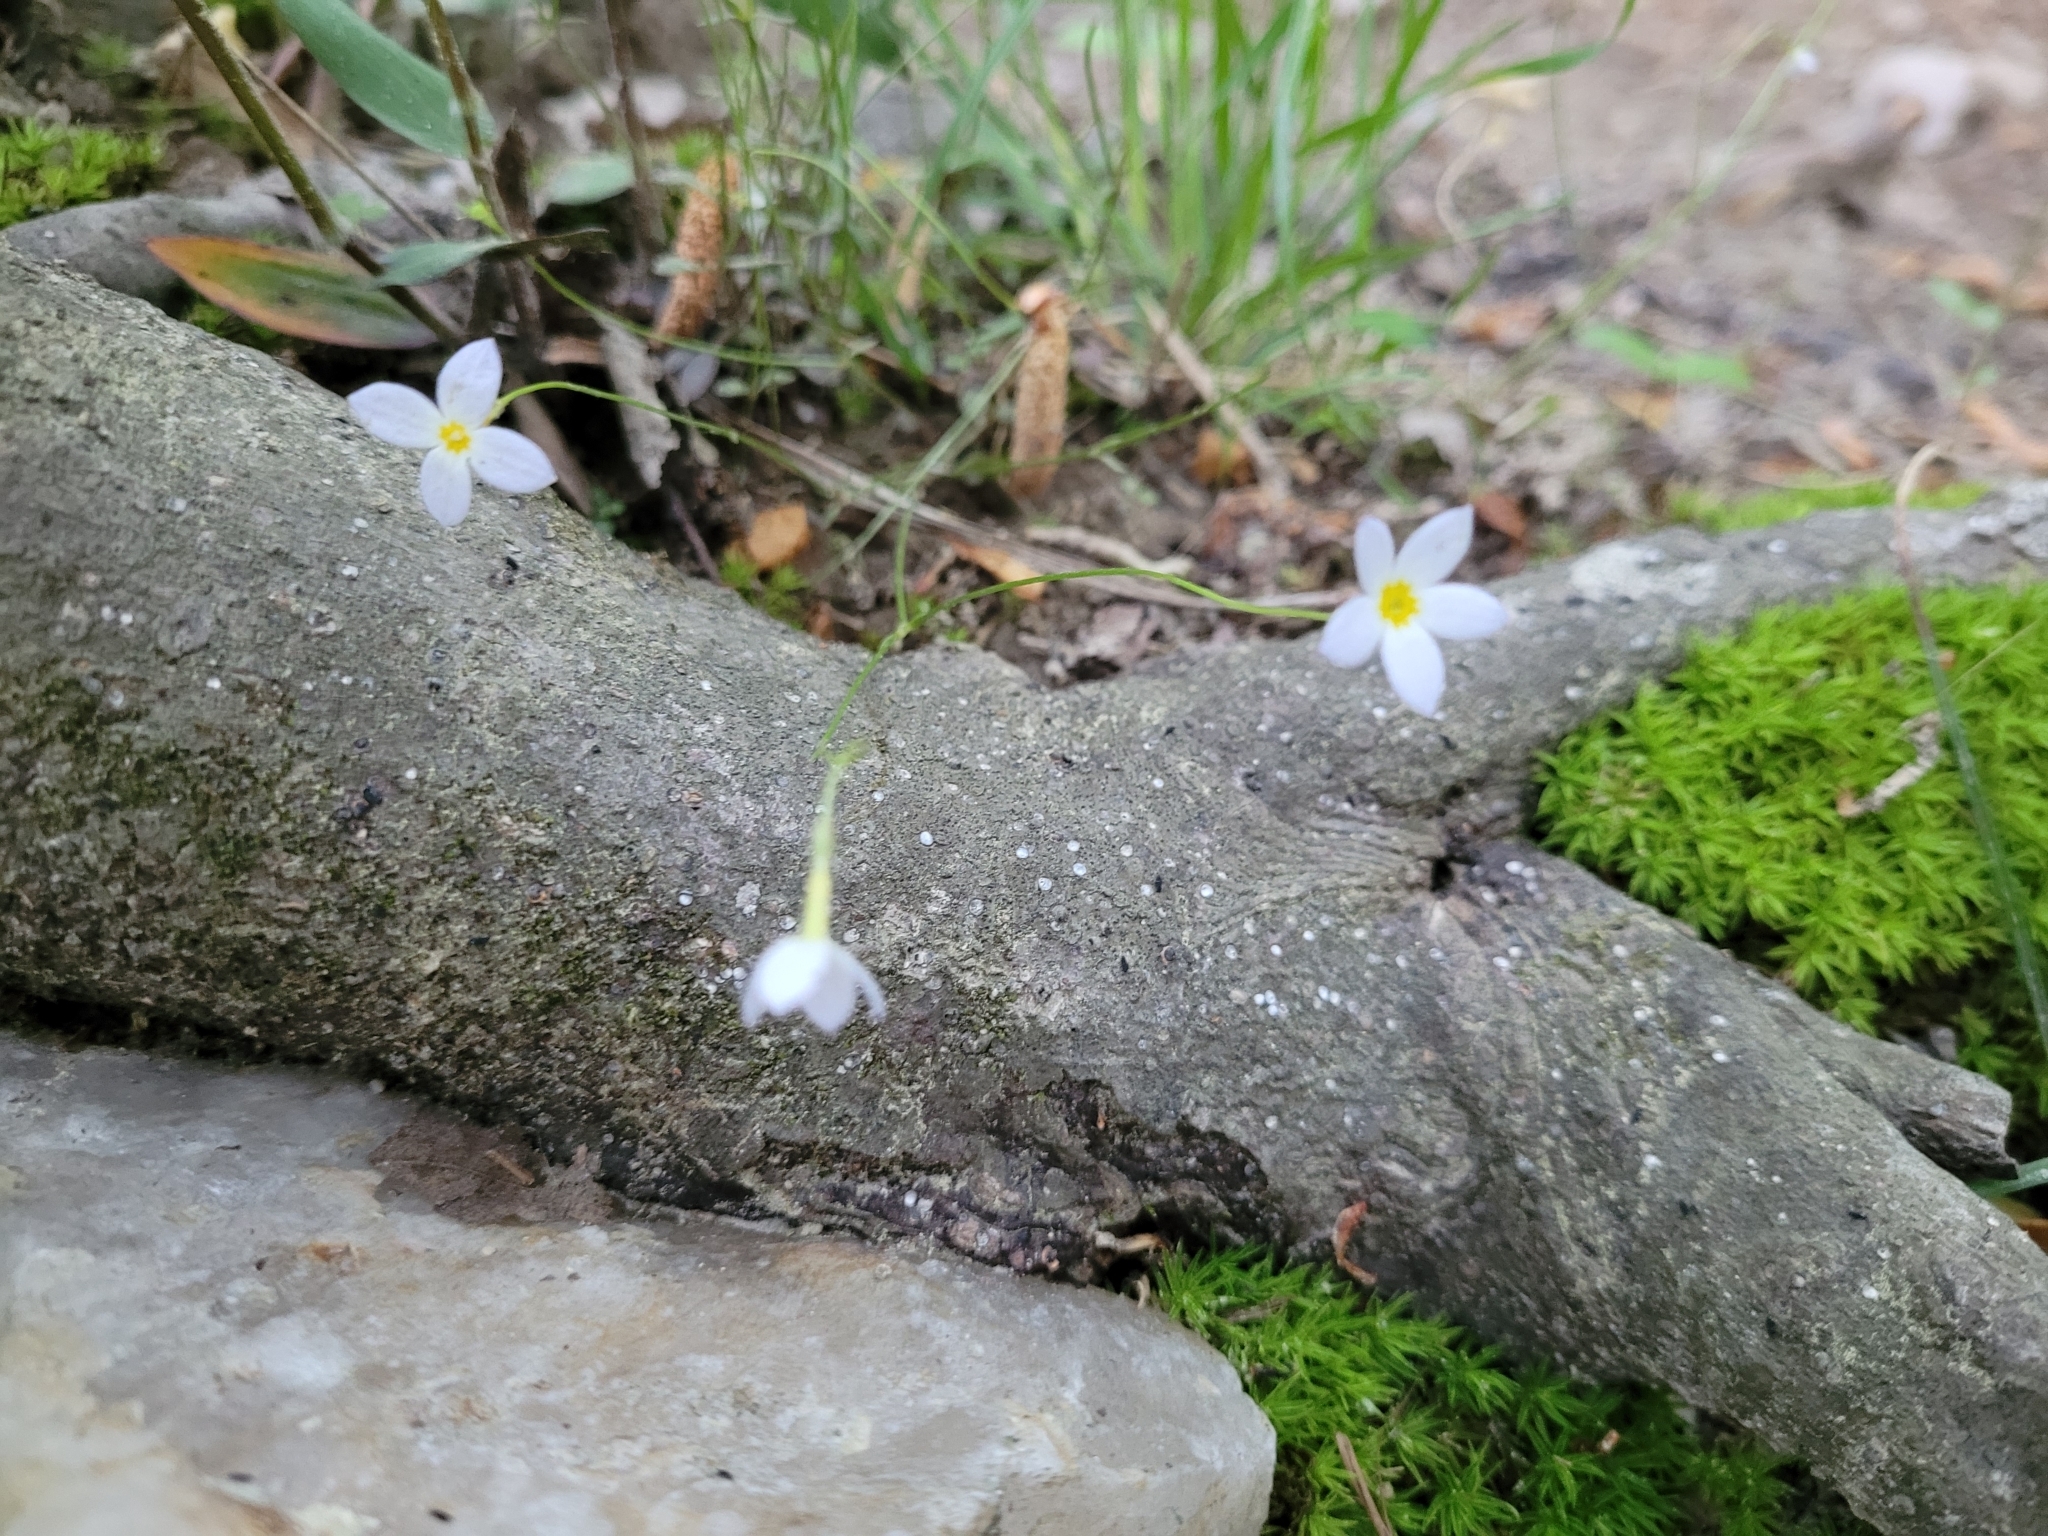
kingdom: Plantae
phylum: Tracheophyta
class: Magnoliopsida
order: Gentianales
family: Rubiaceae
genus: Houstonia
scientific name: Houstonia caerulea
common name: Bluets
